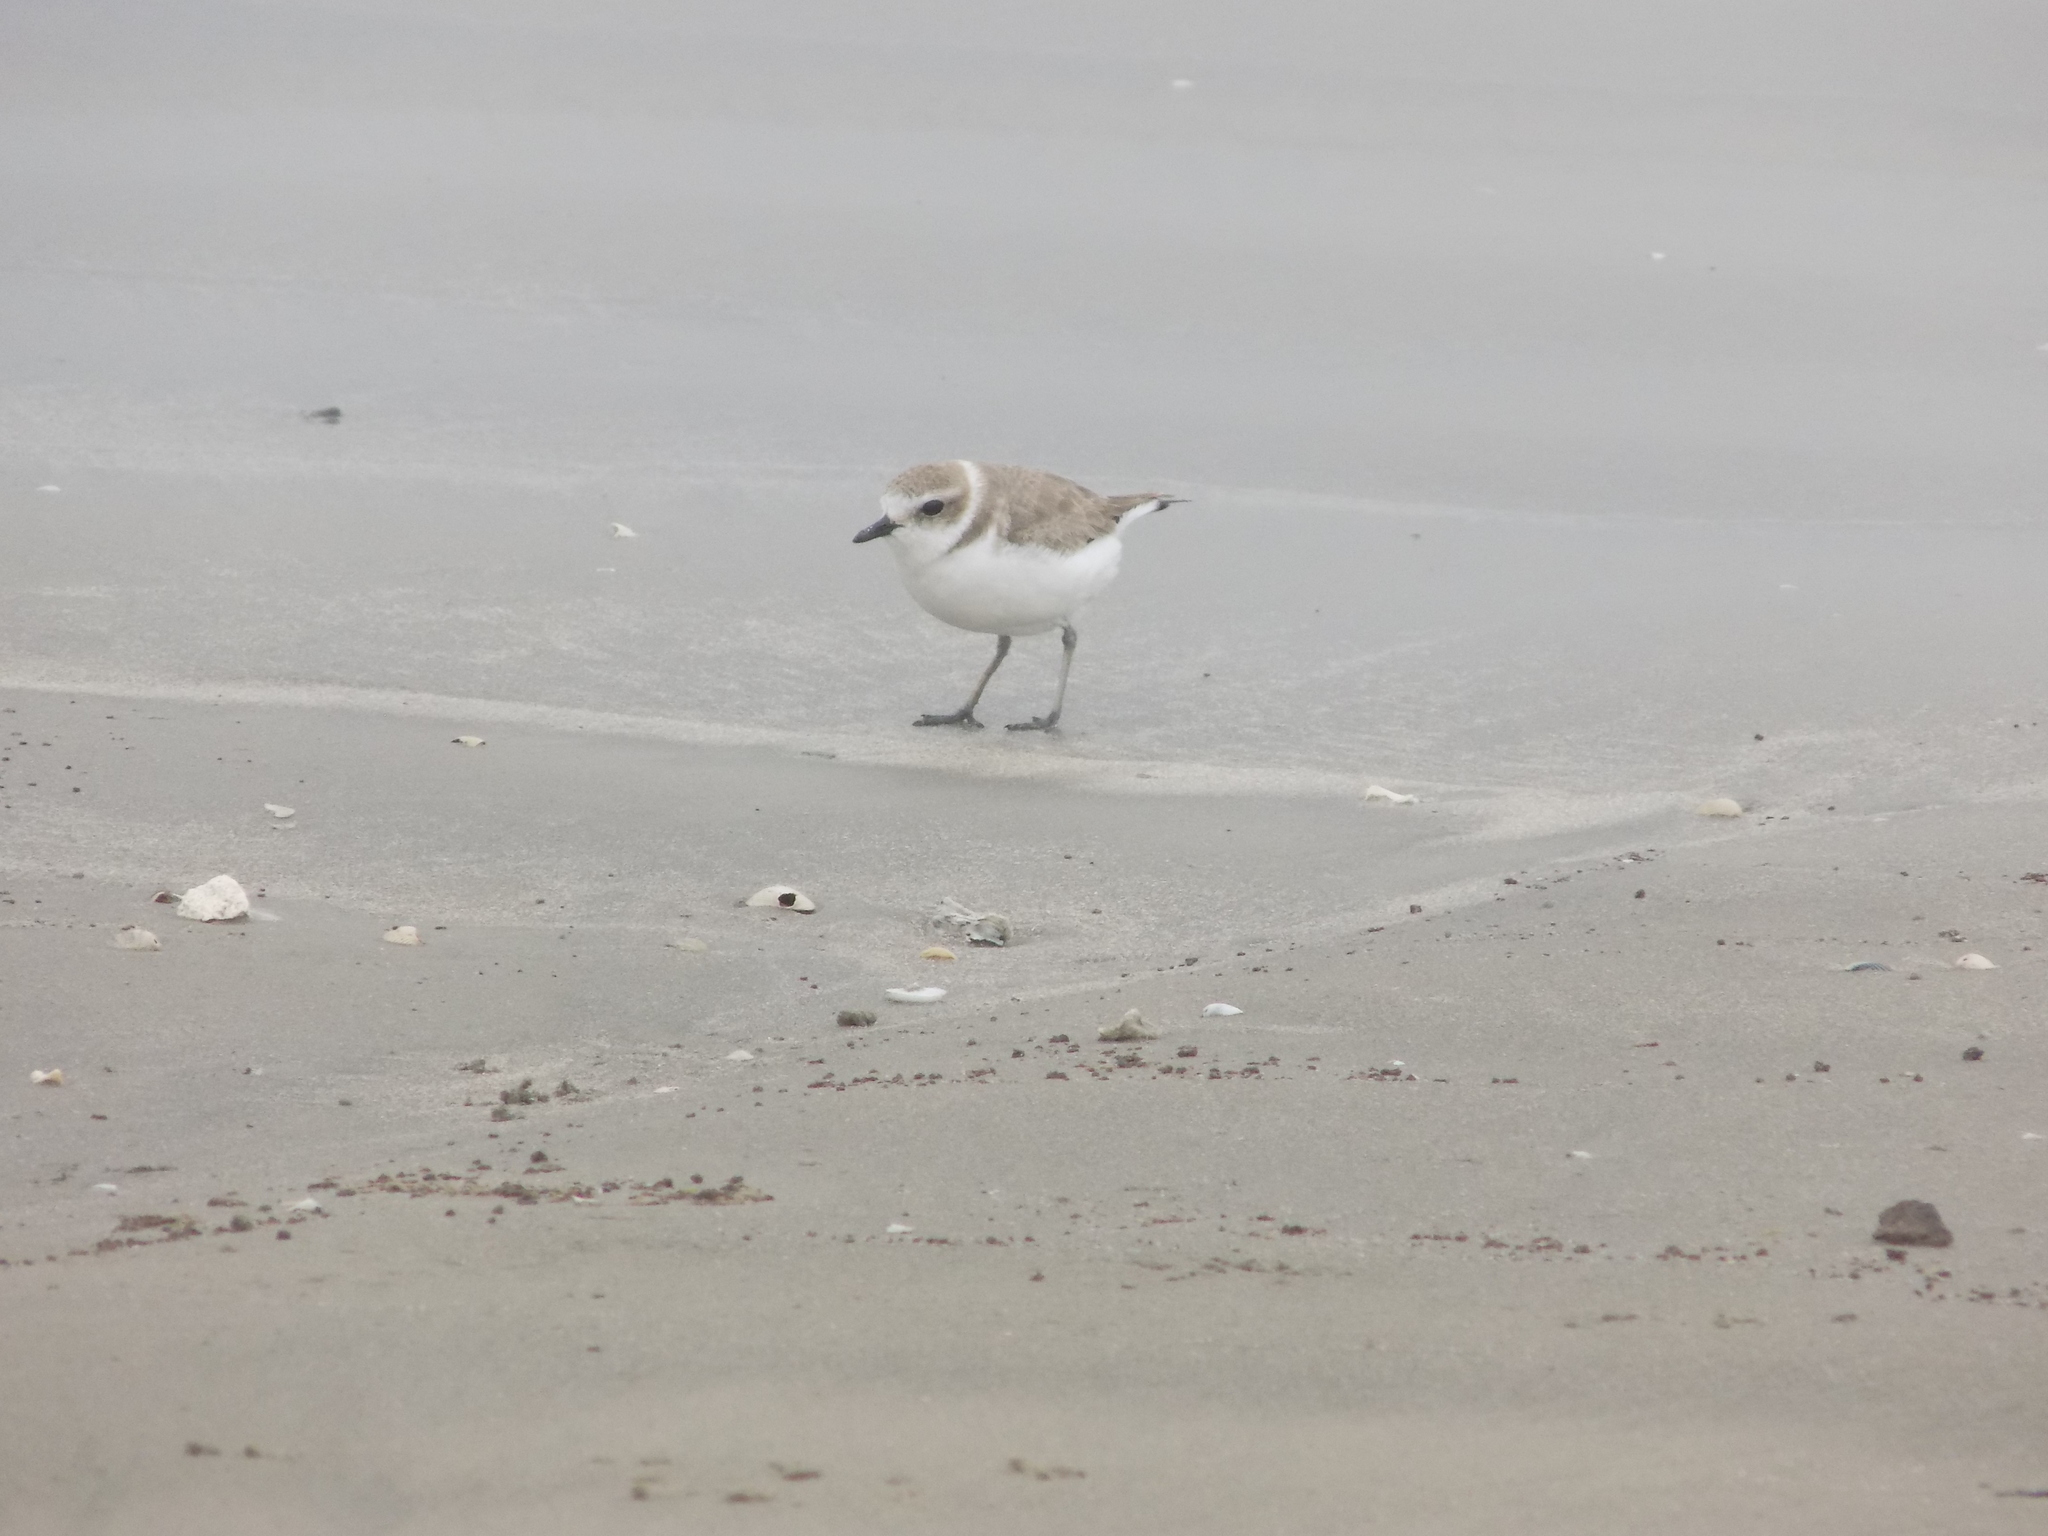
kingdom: Animalia
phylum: Chordata
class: Aves
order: Charadriiformes
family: Charadriidae
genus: Anarhynchus
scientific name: Anarhynchus
